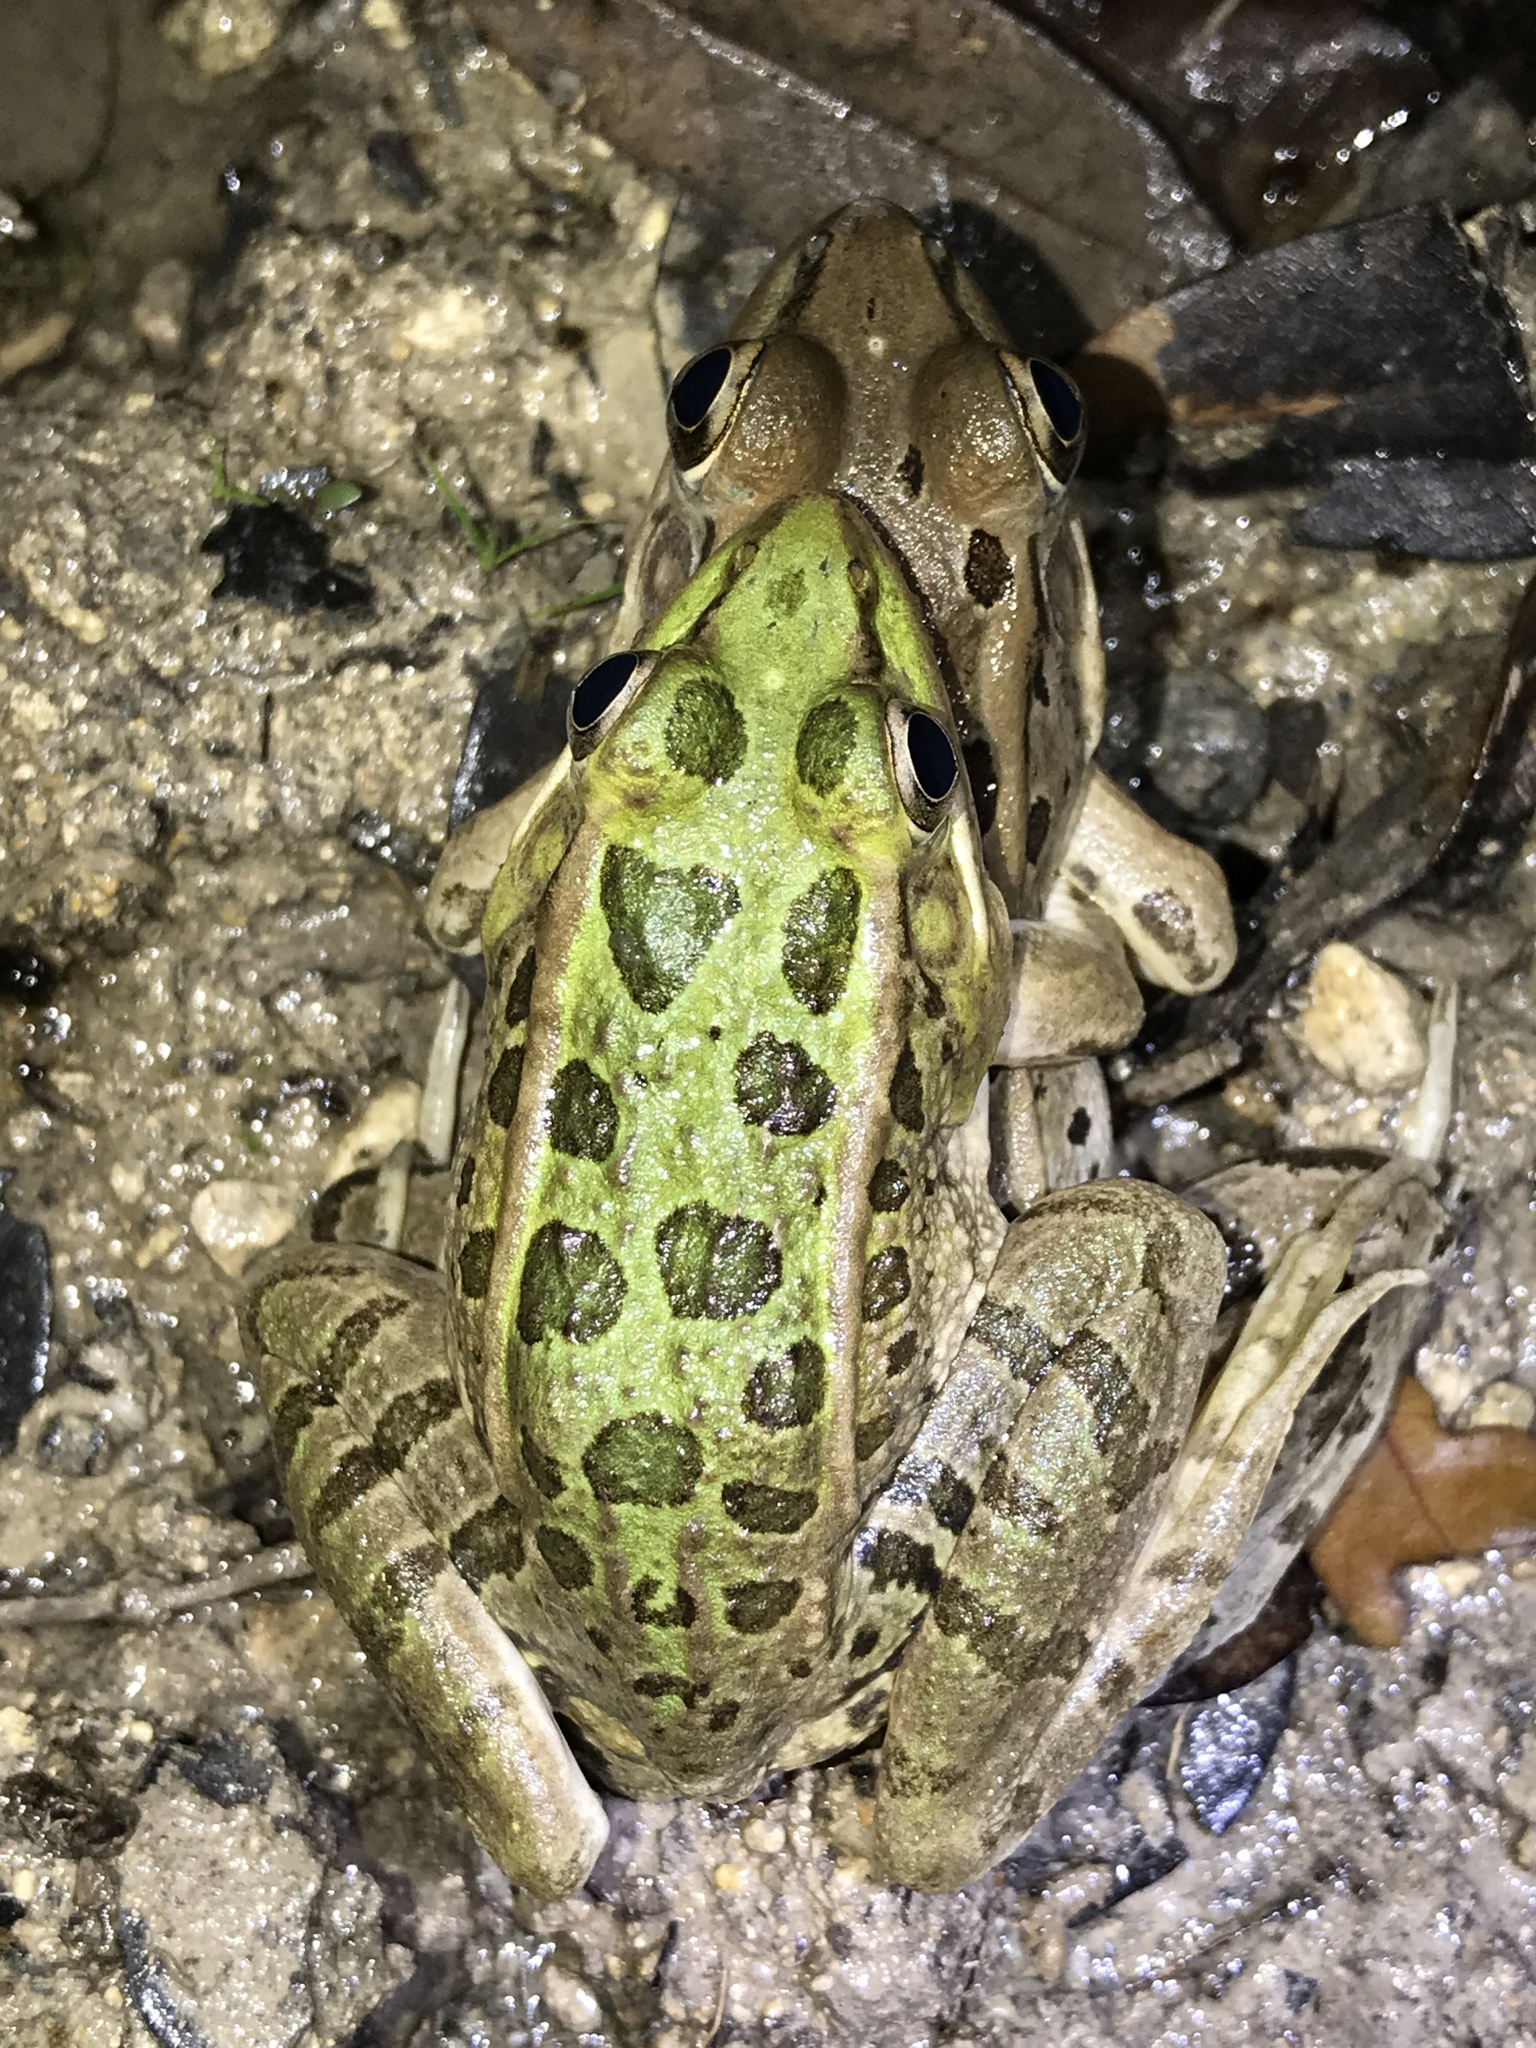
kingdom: Animalia
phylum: Chordata
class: Amphibia
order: Anura
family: Ranidae
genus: Lithobates
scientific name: Lithobates berlandieri
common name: Rio grande leopard frog
